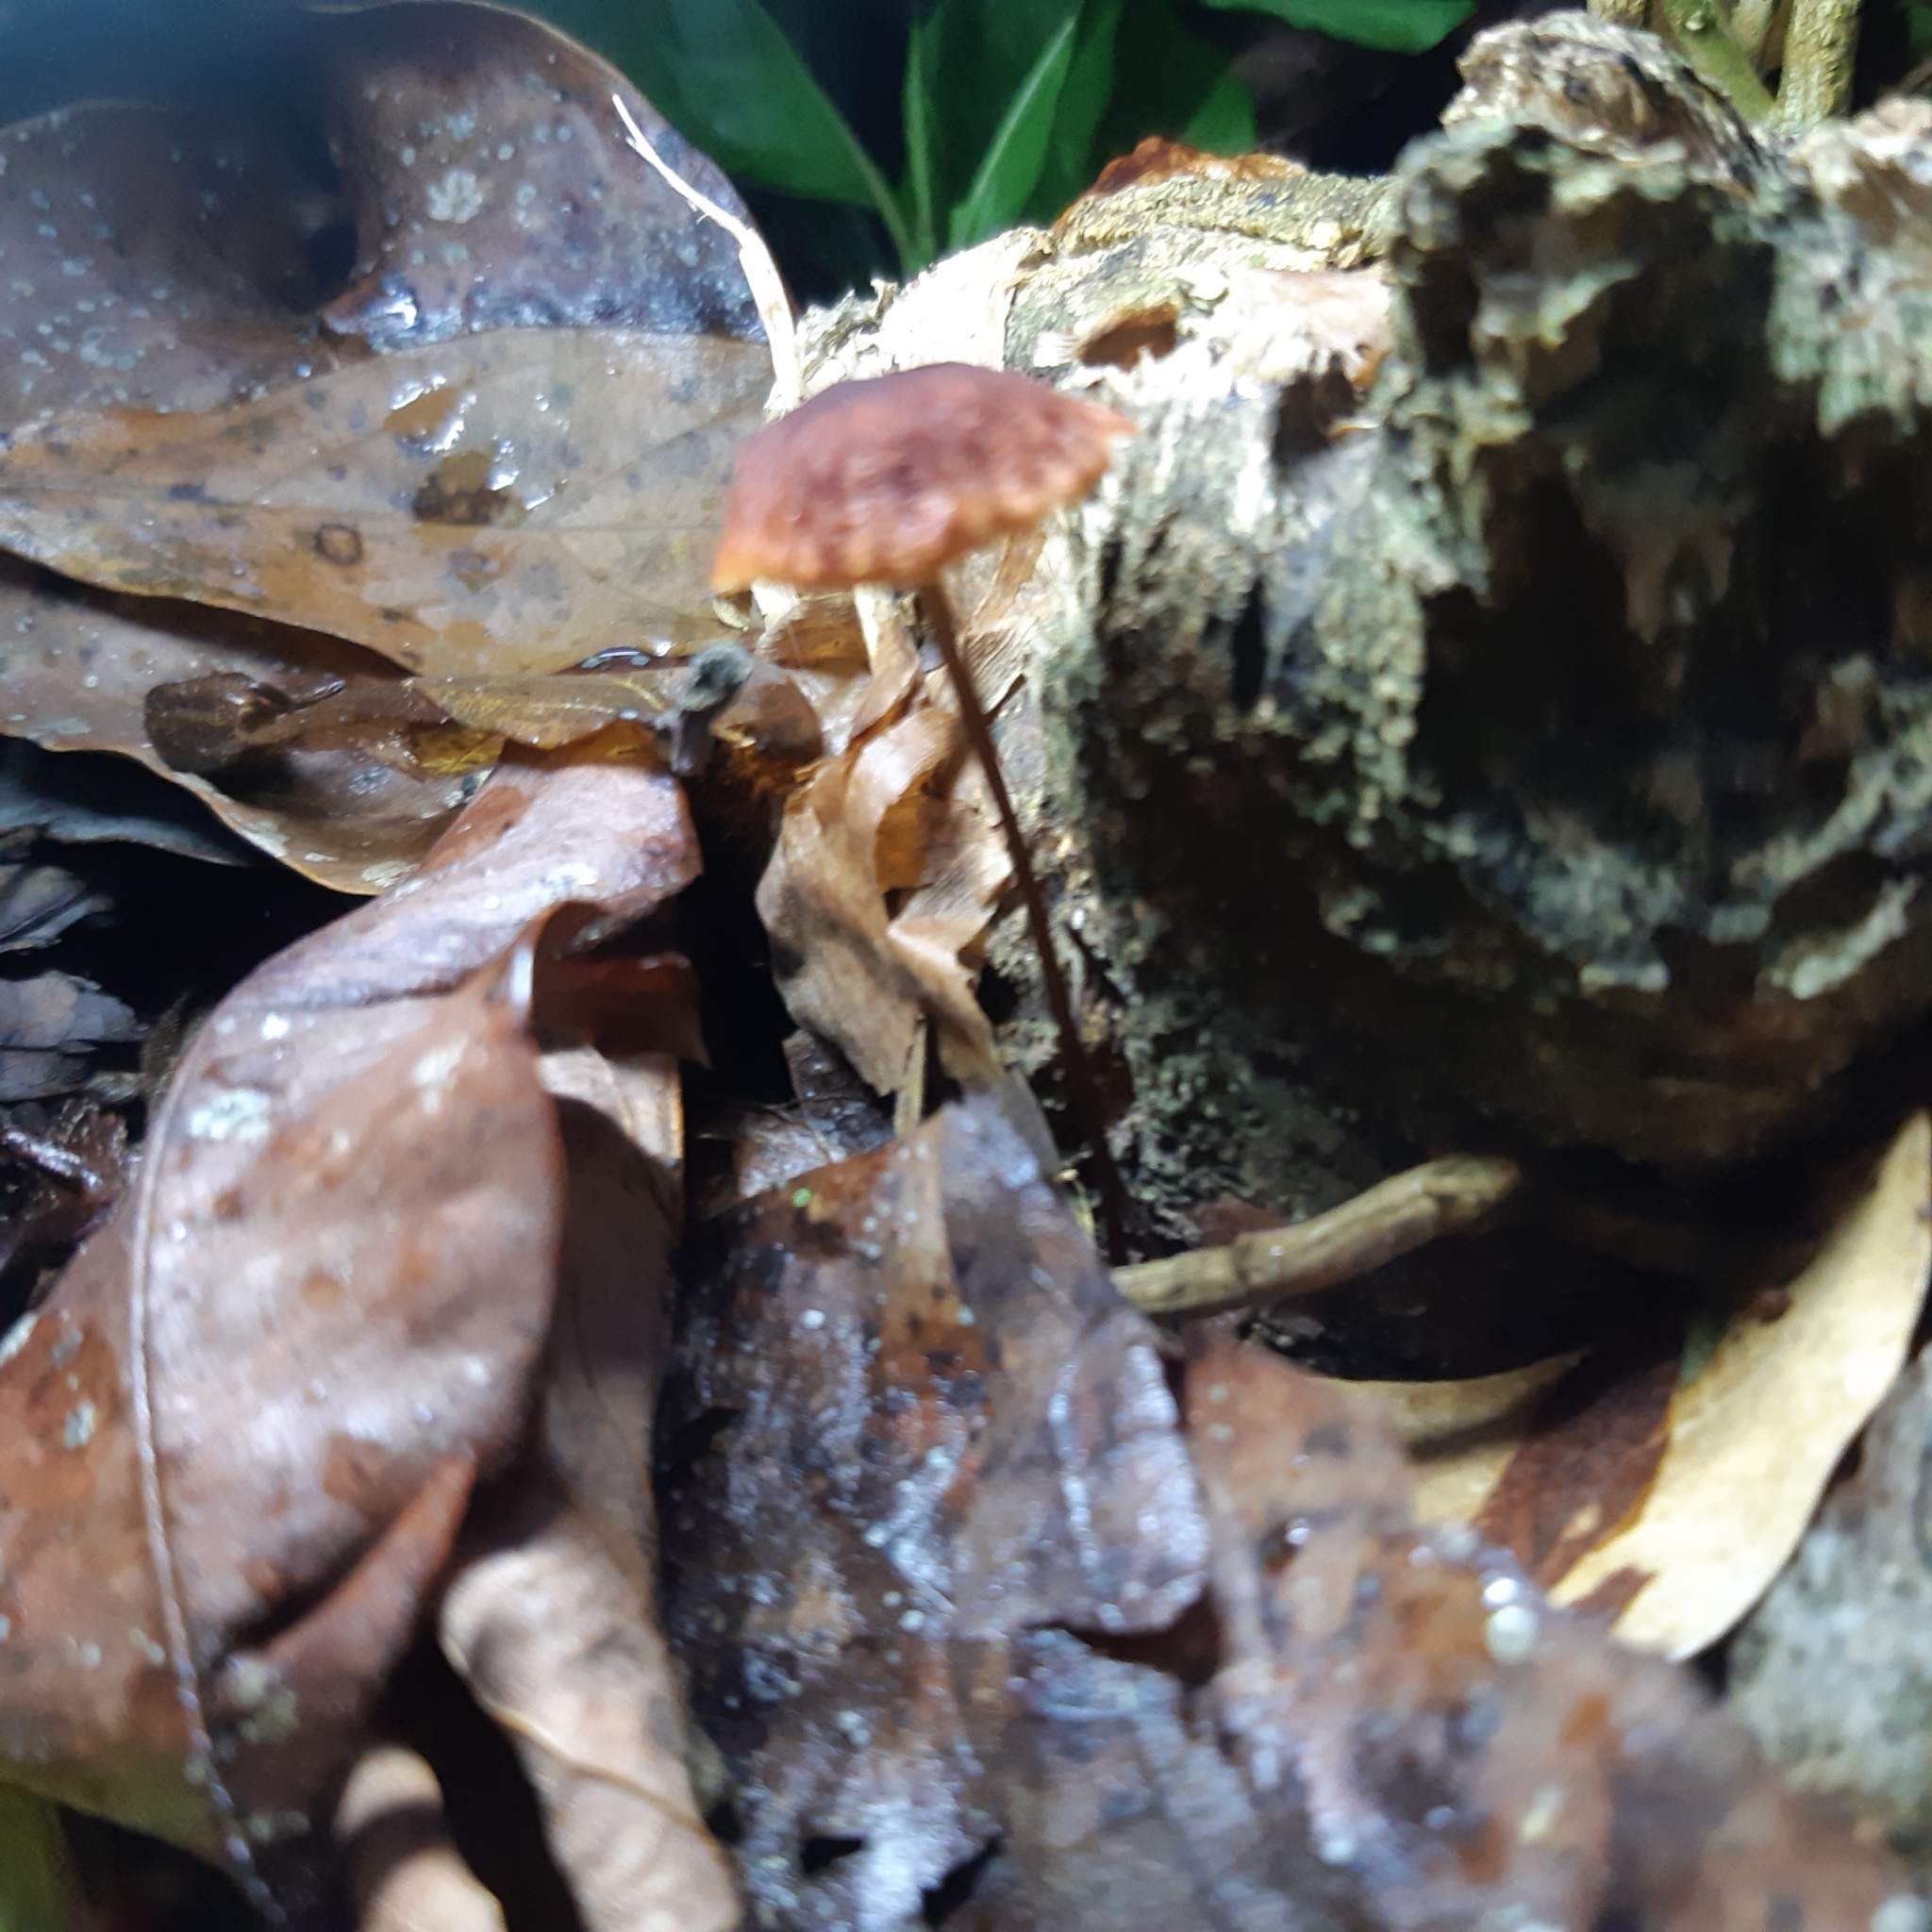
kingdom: Fungi
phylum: Basidiomycota
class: Agaricomycetes
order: Agaricales
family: Marasmiaceae
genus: Marasmius
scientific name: Marasmius perlongispermus
